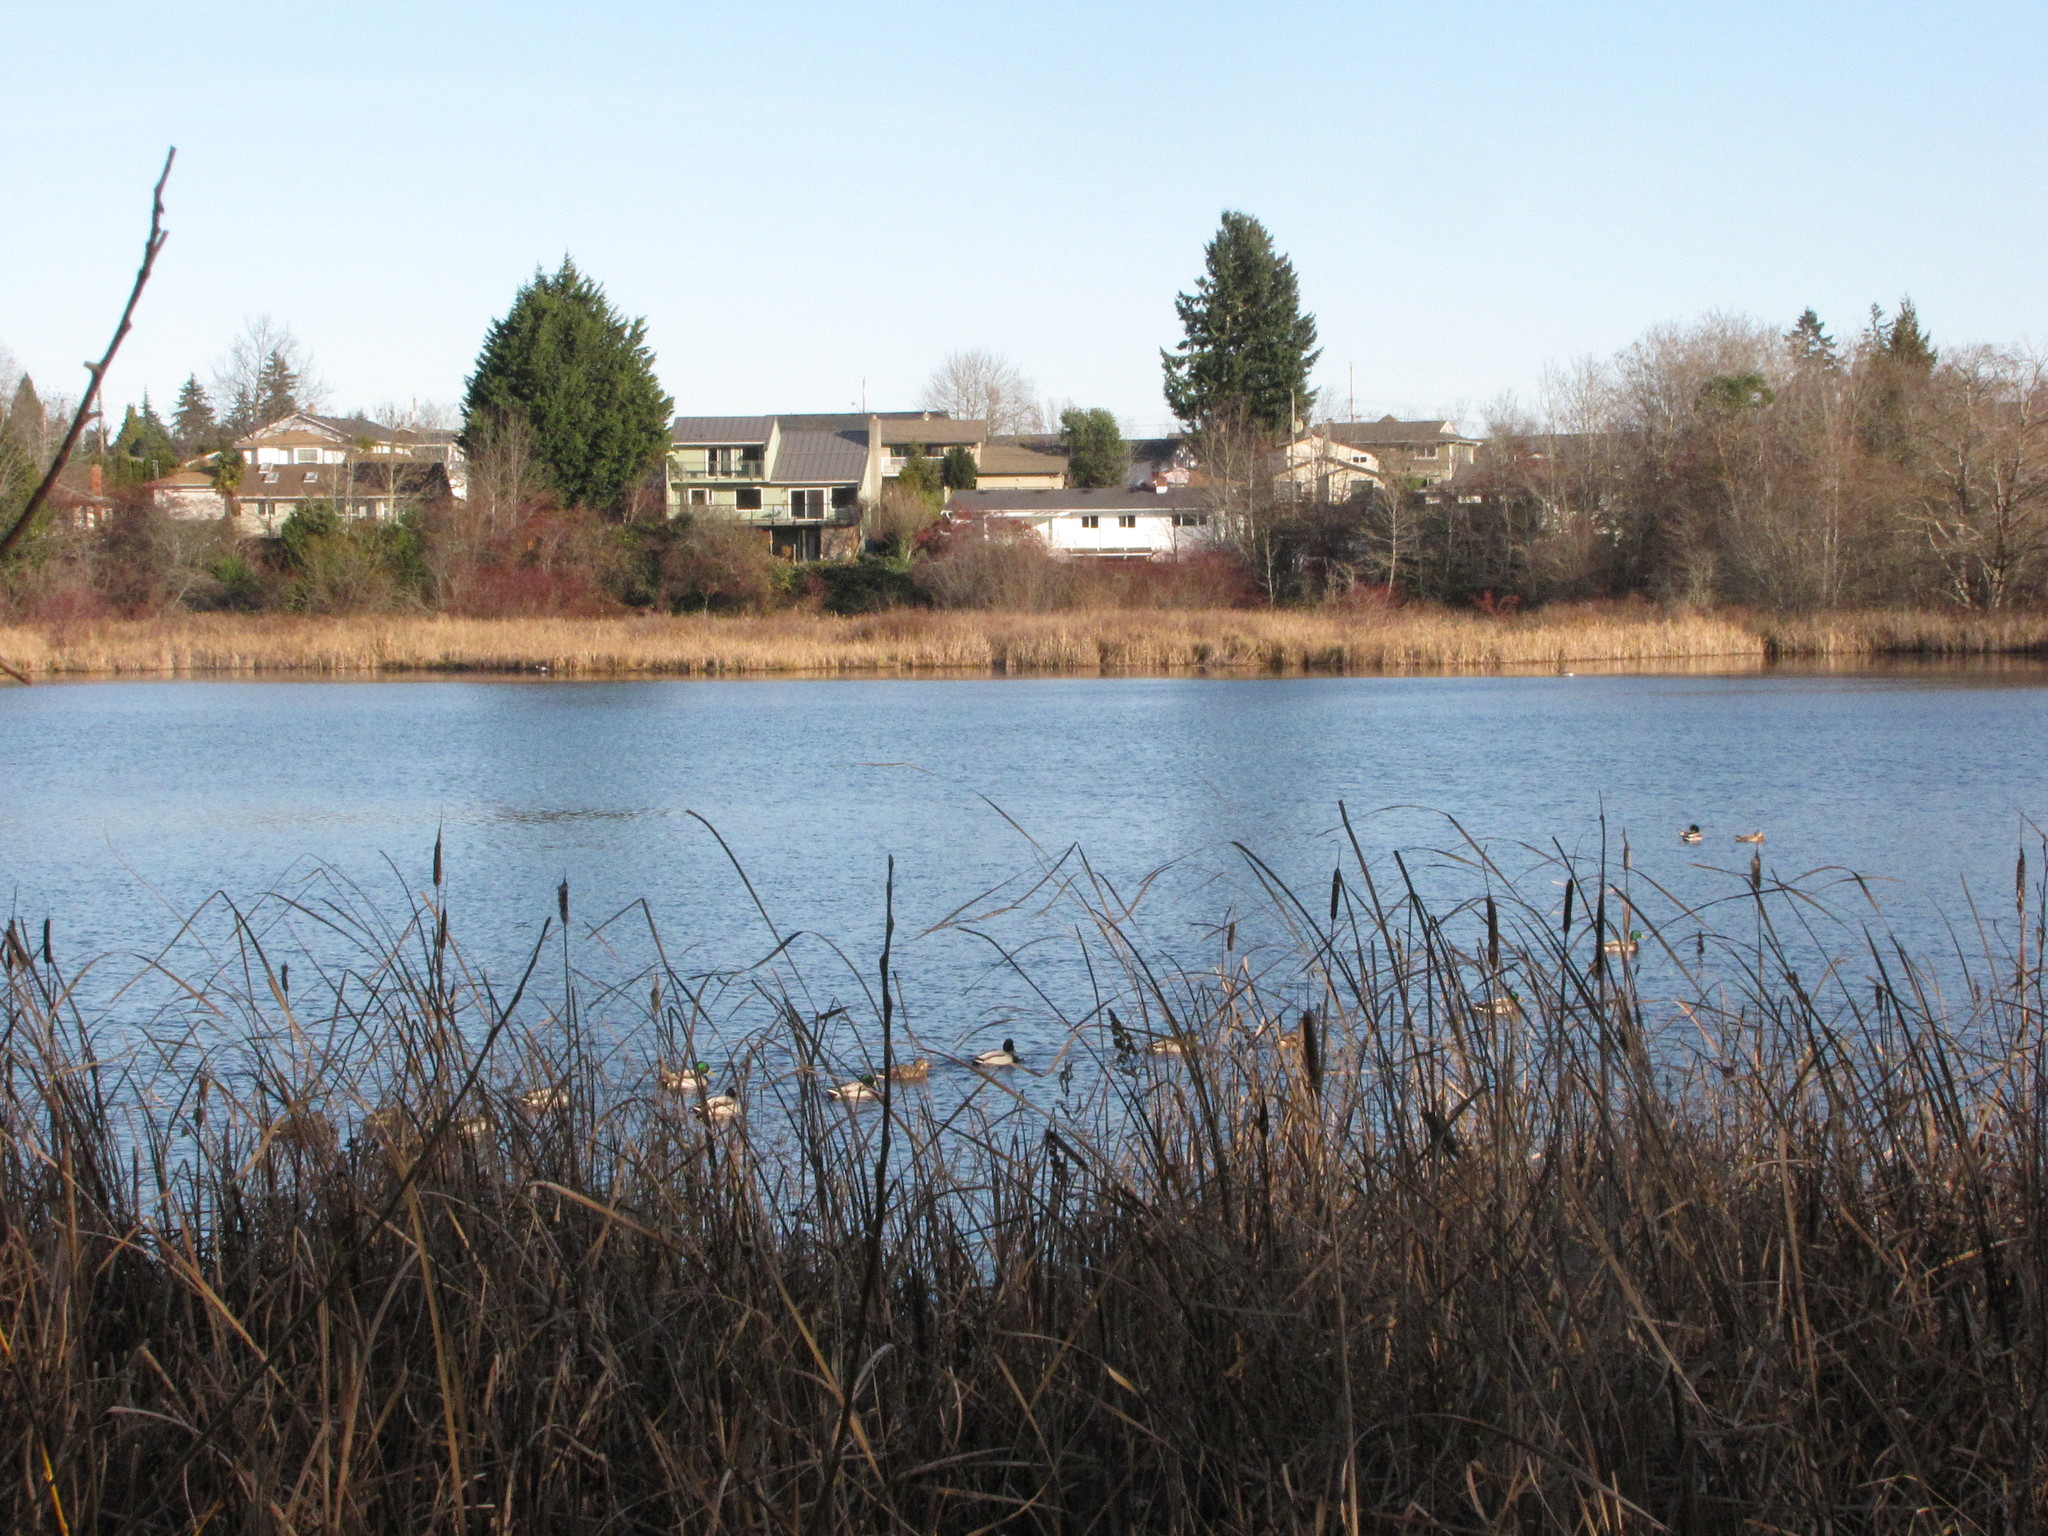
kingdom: Animalia
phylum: Chordata
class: Aves
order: Anseriformes
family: Anatidae
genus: Anas
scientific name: Anas platyrhynchos
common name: Mallard
